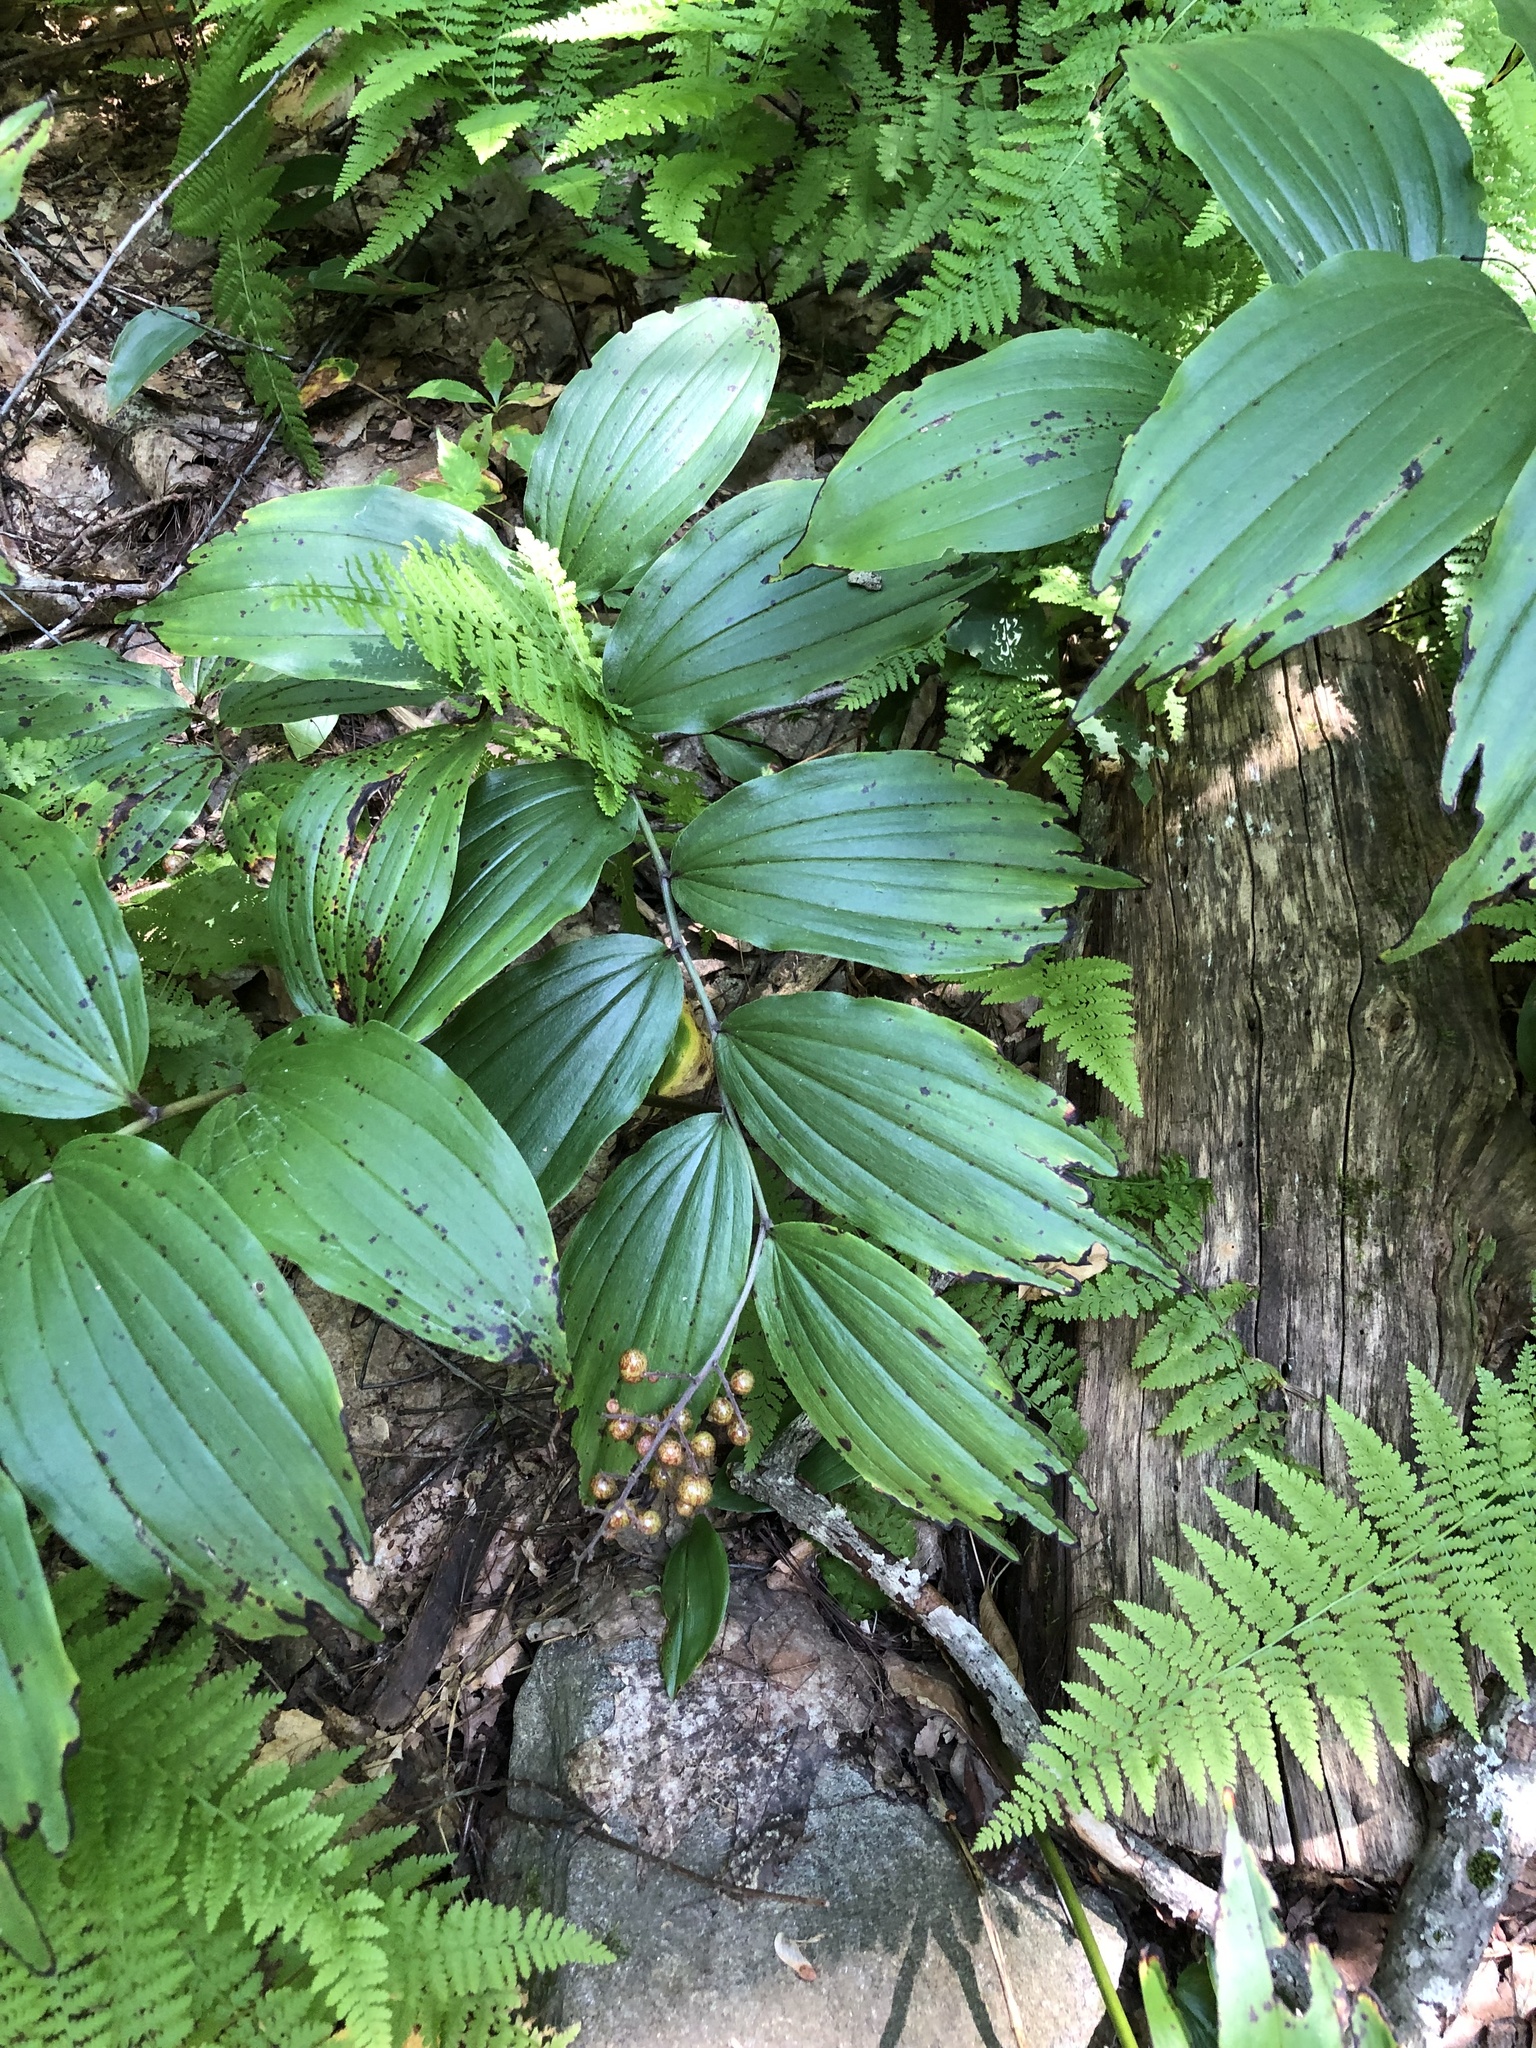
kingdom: Plantae
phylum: Tracheophyta
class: Liliopsida
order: Asparagales
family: Asparagaceae
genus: Maianthemum
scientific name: Maianthemum racemosum
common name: False spikenard
